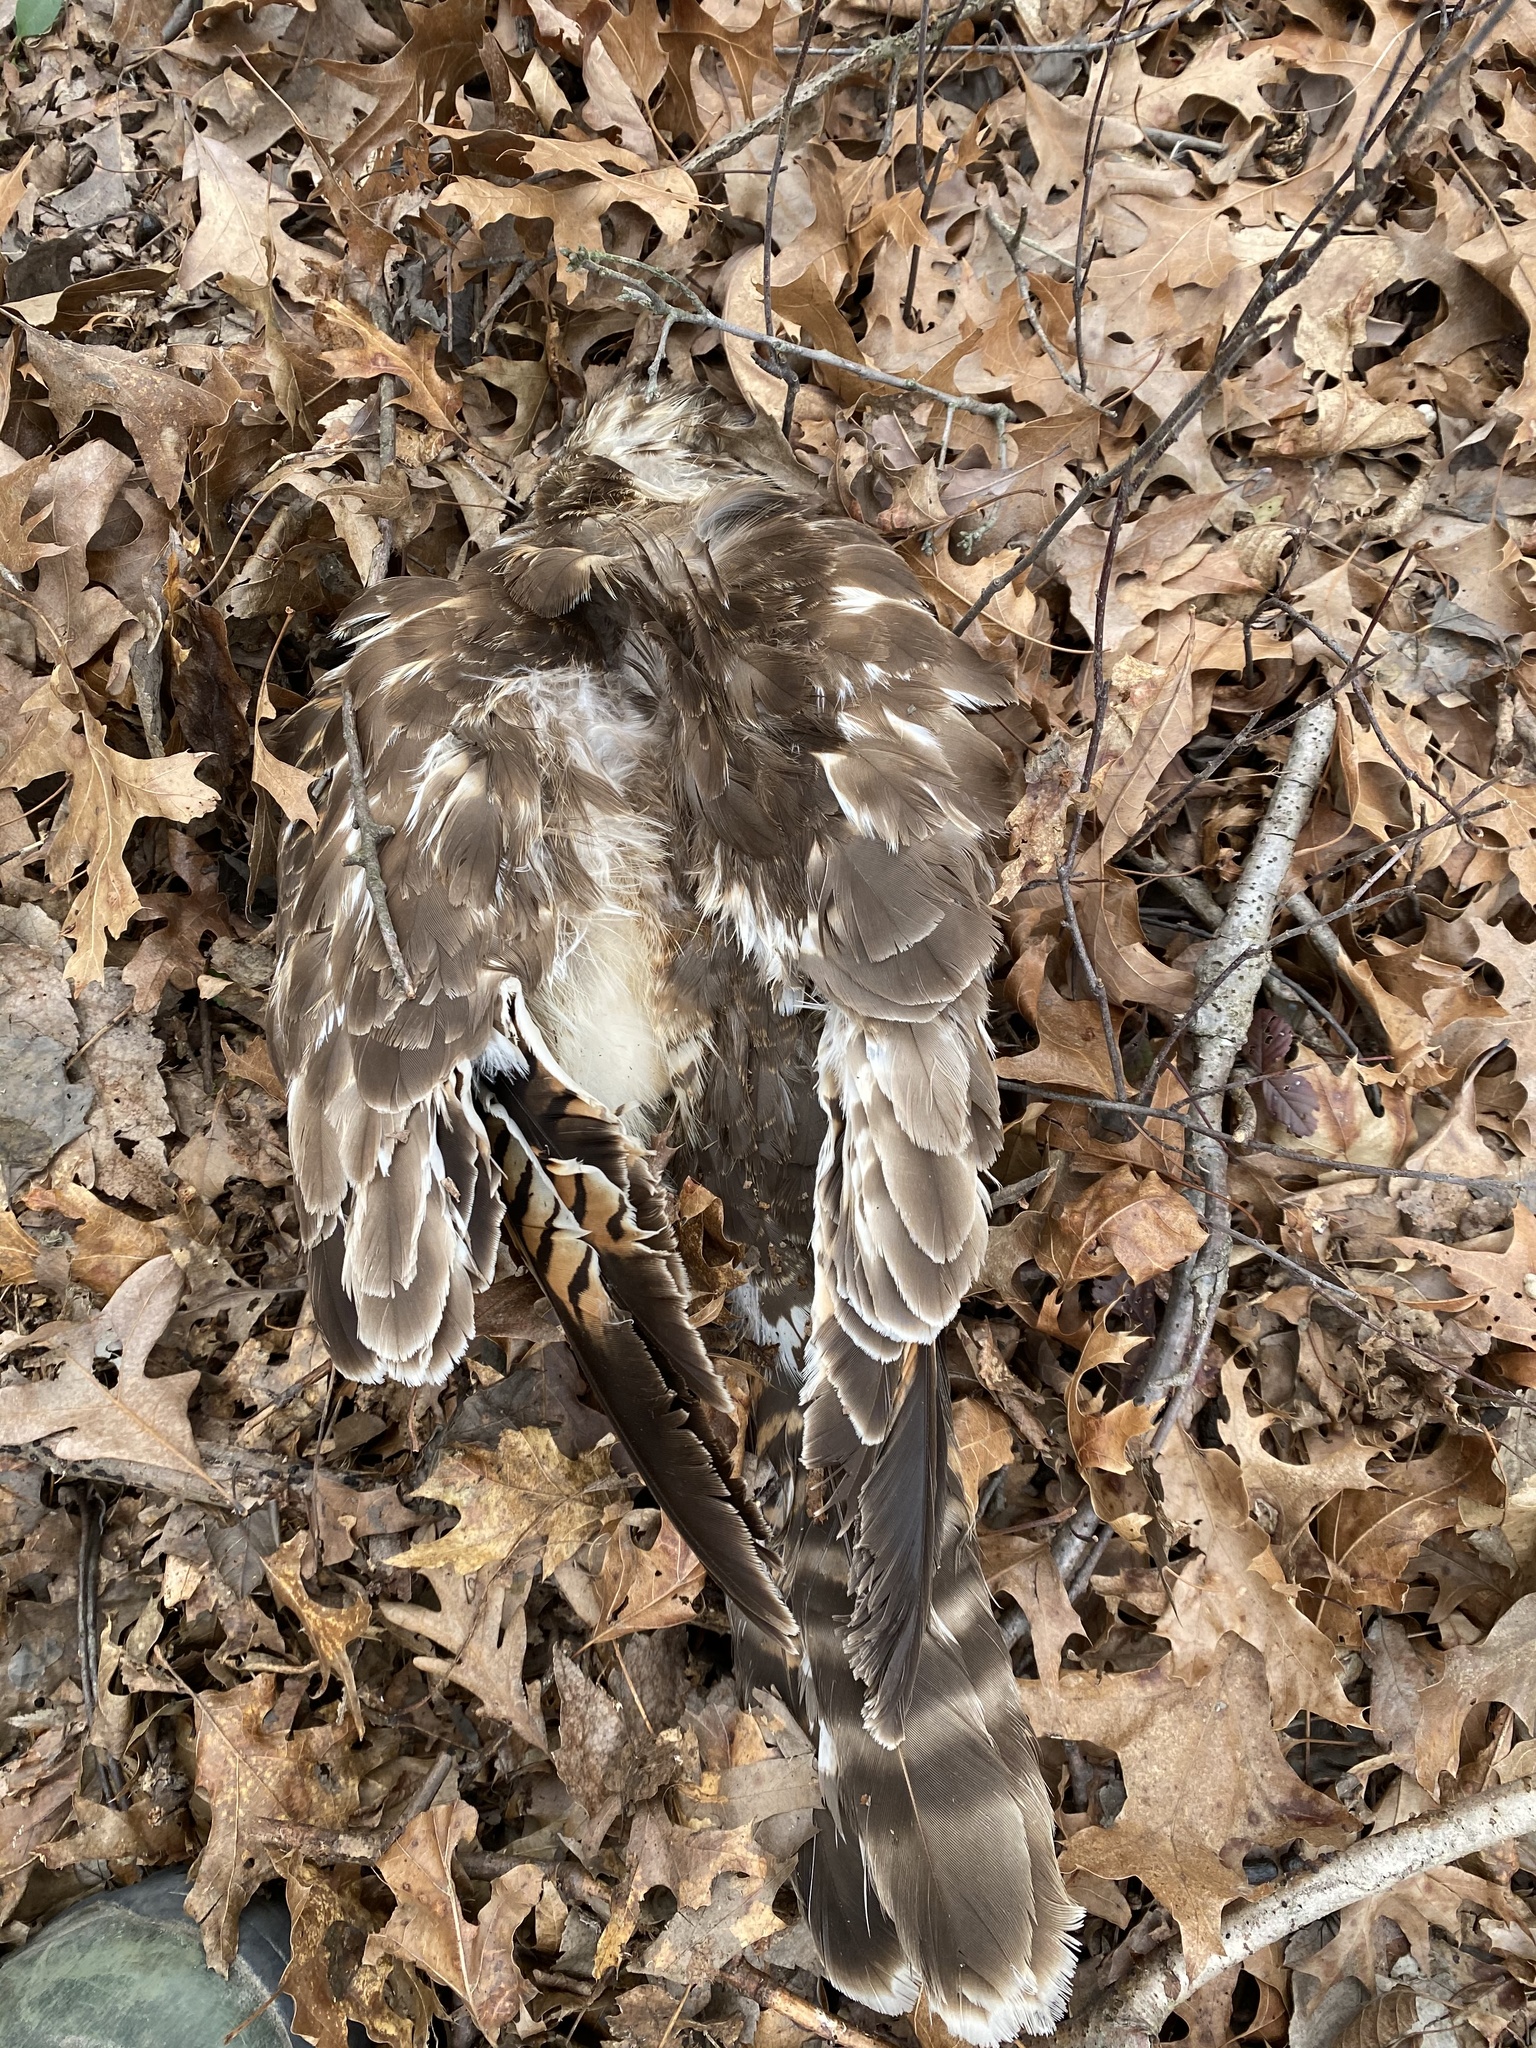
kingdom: Animalia
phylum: Chordata
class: Aves
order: Accipitriformes
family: Accipitridae
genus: Buteo
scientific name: Buteo lineatus
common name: Red-shouldered hawk
